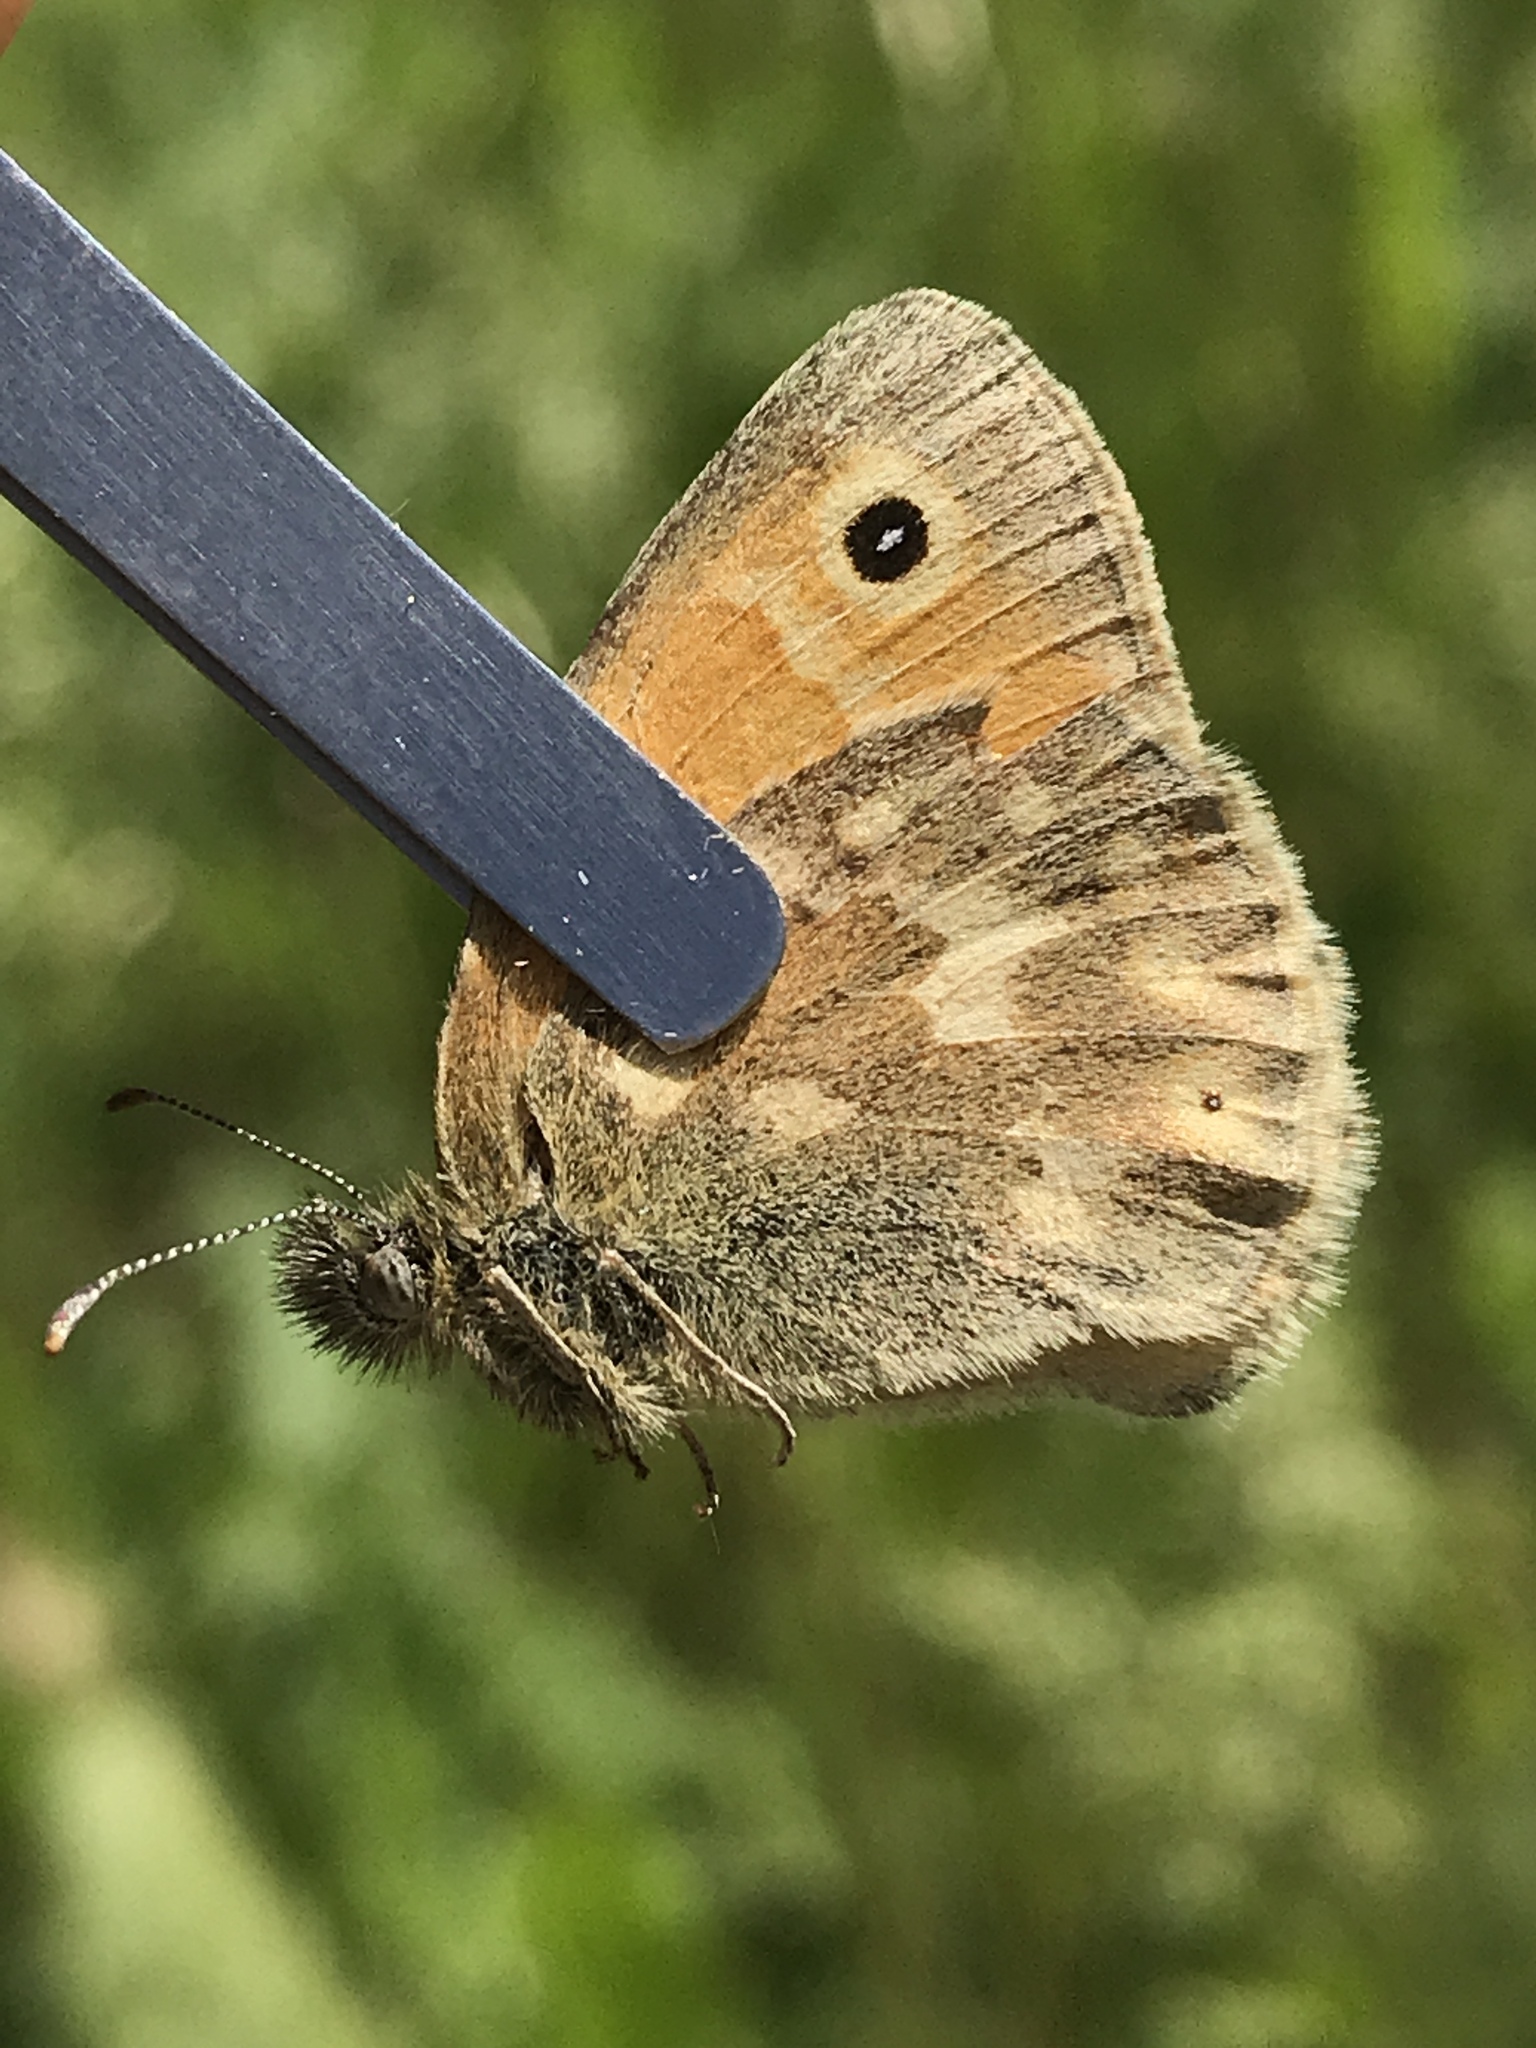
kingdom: Animalia
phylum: Arthropoda
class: Insecta
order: Lepidoptera
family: Nymphalidae
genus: Coenonympha
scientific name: Coenonympha california
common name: Common ringlet
